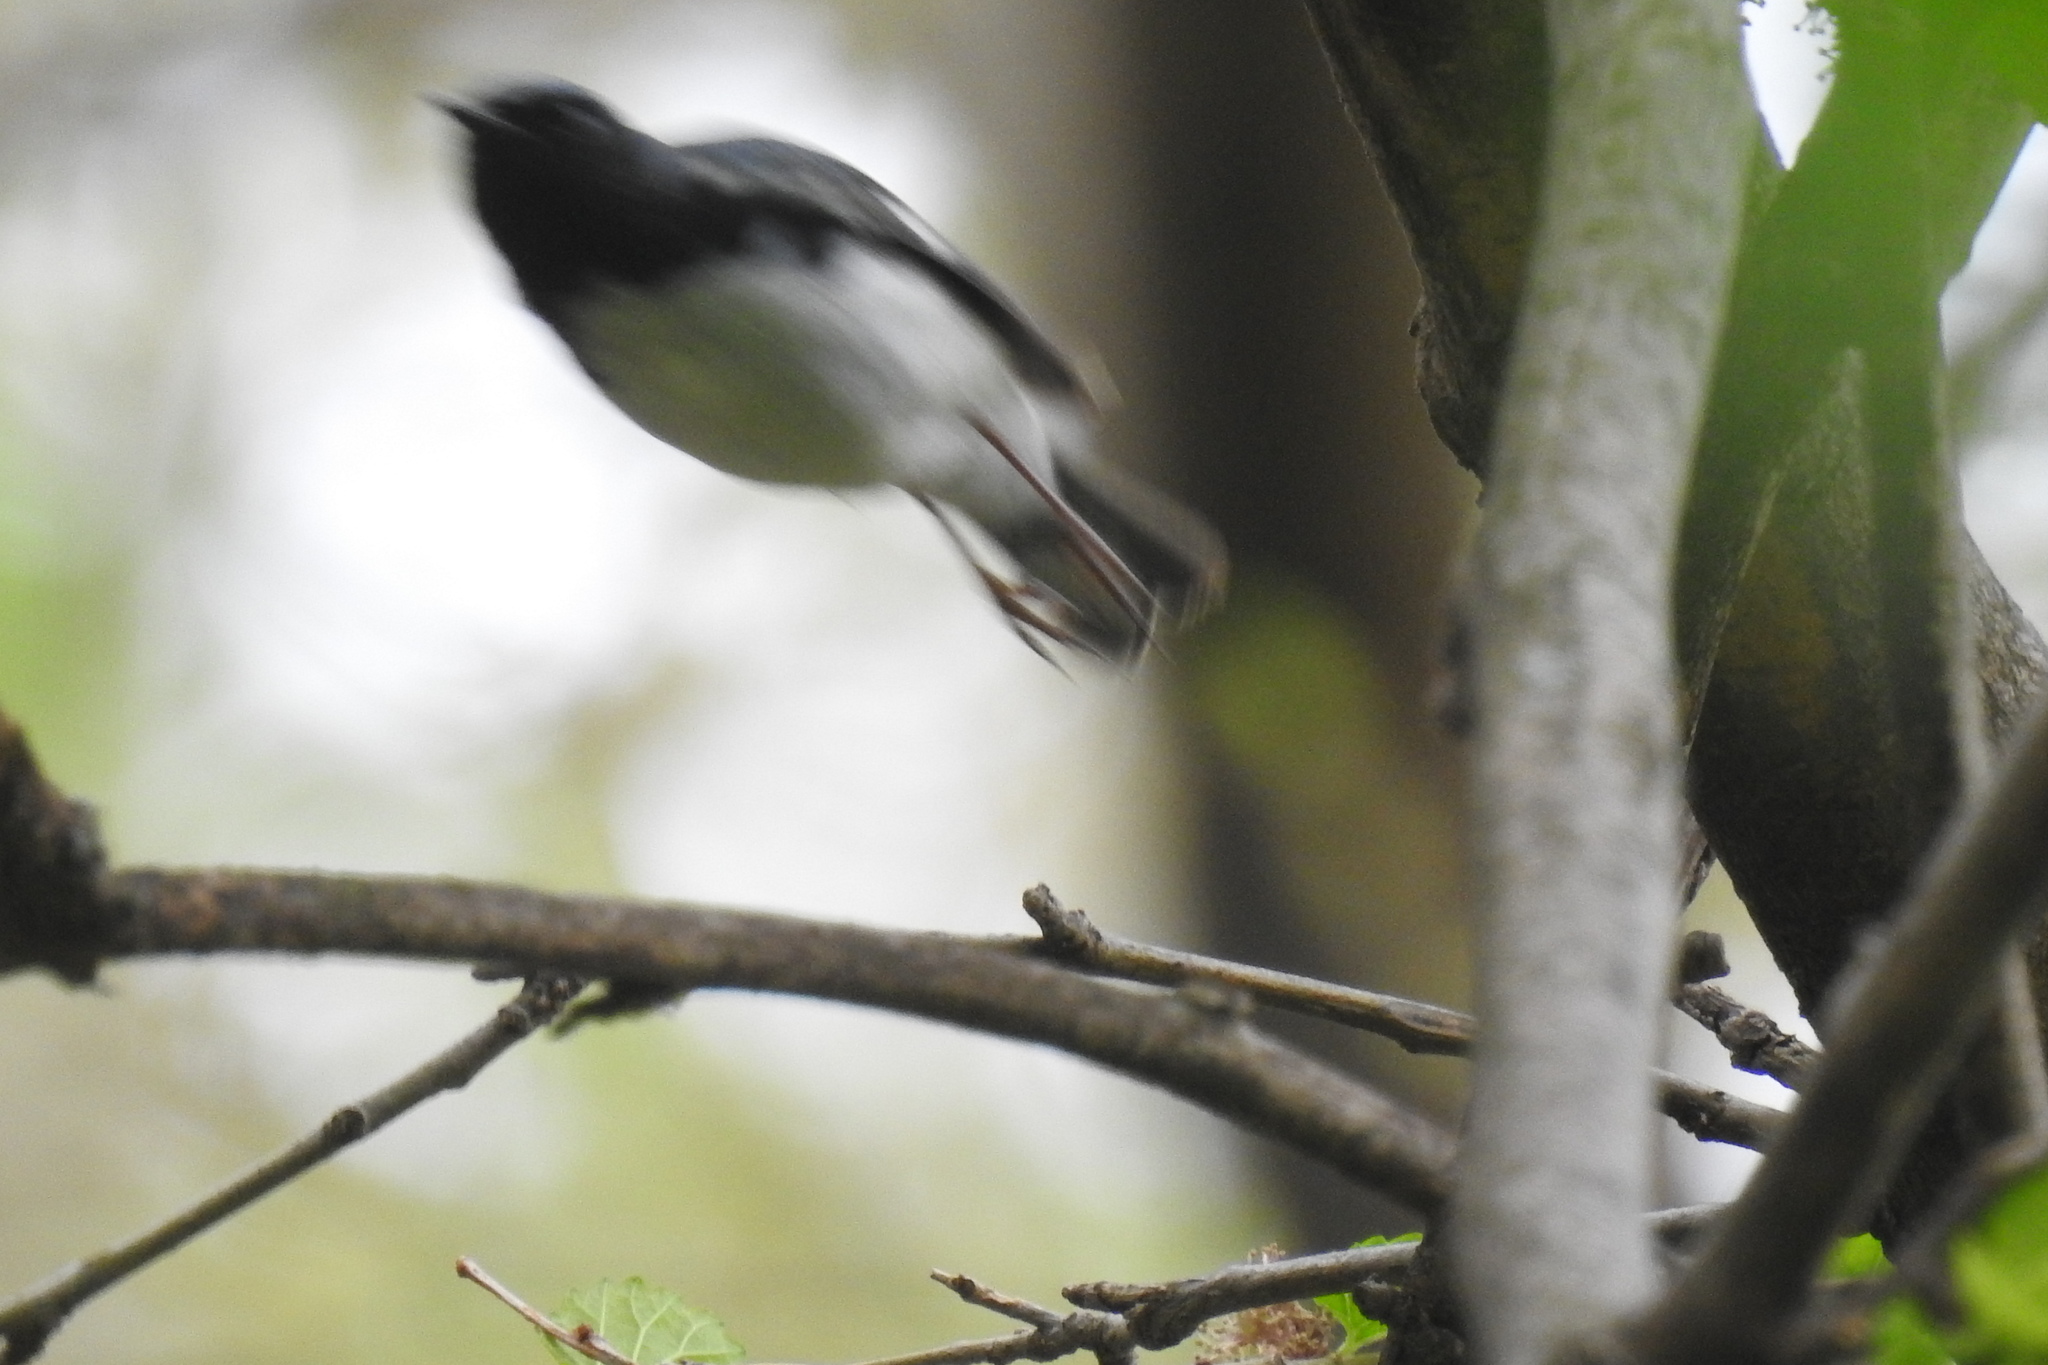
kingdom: Animalia
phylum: Chordata
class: Aves
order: Passeriformes
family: Parulidae
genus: Setophaga
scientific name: Setophaga caerulescens
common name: Black-throated blue warbler
